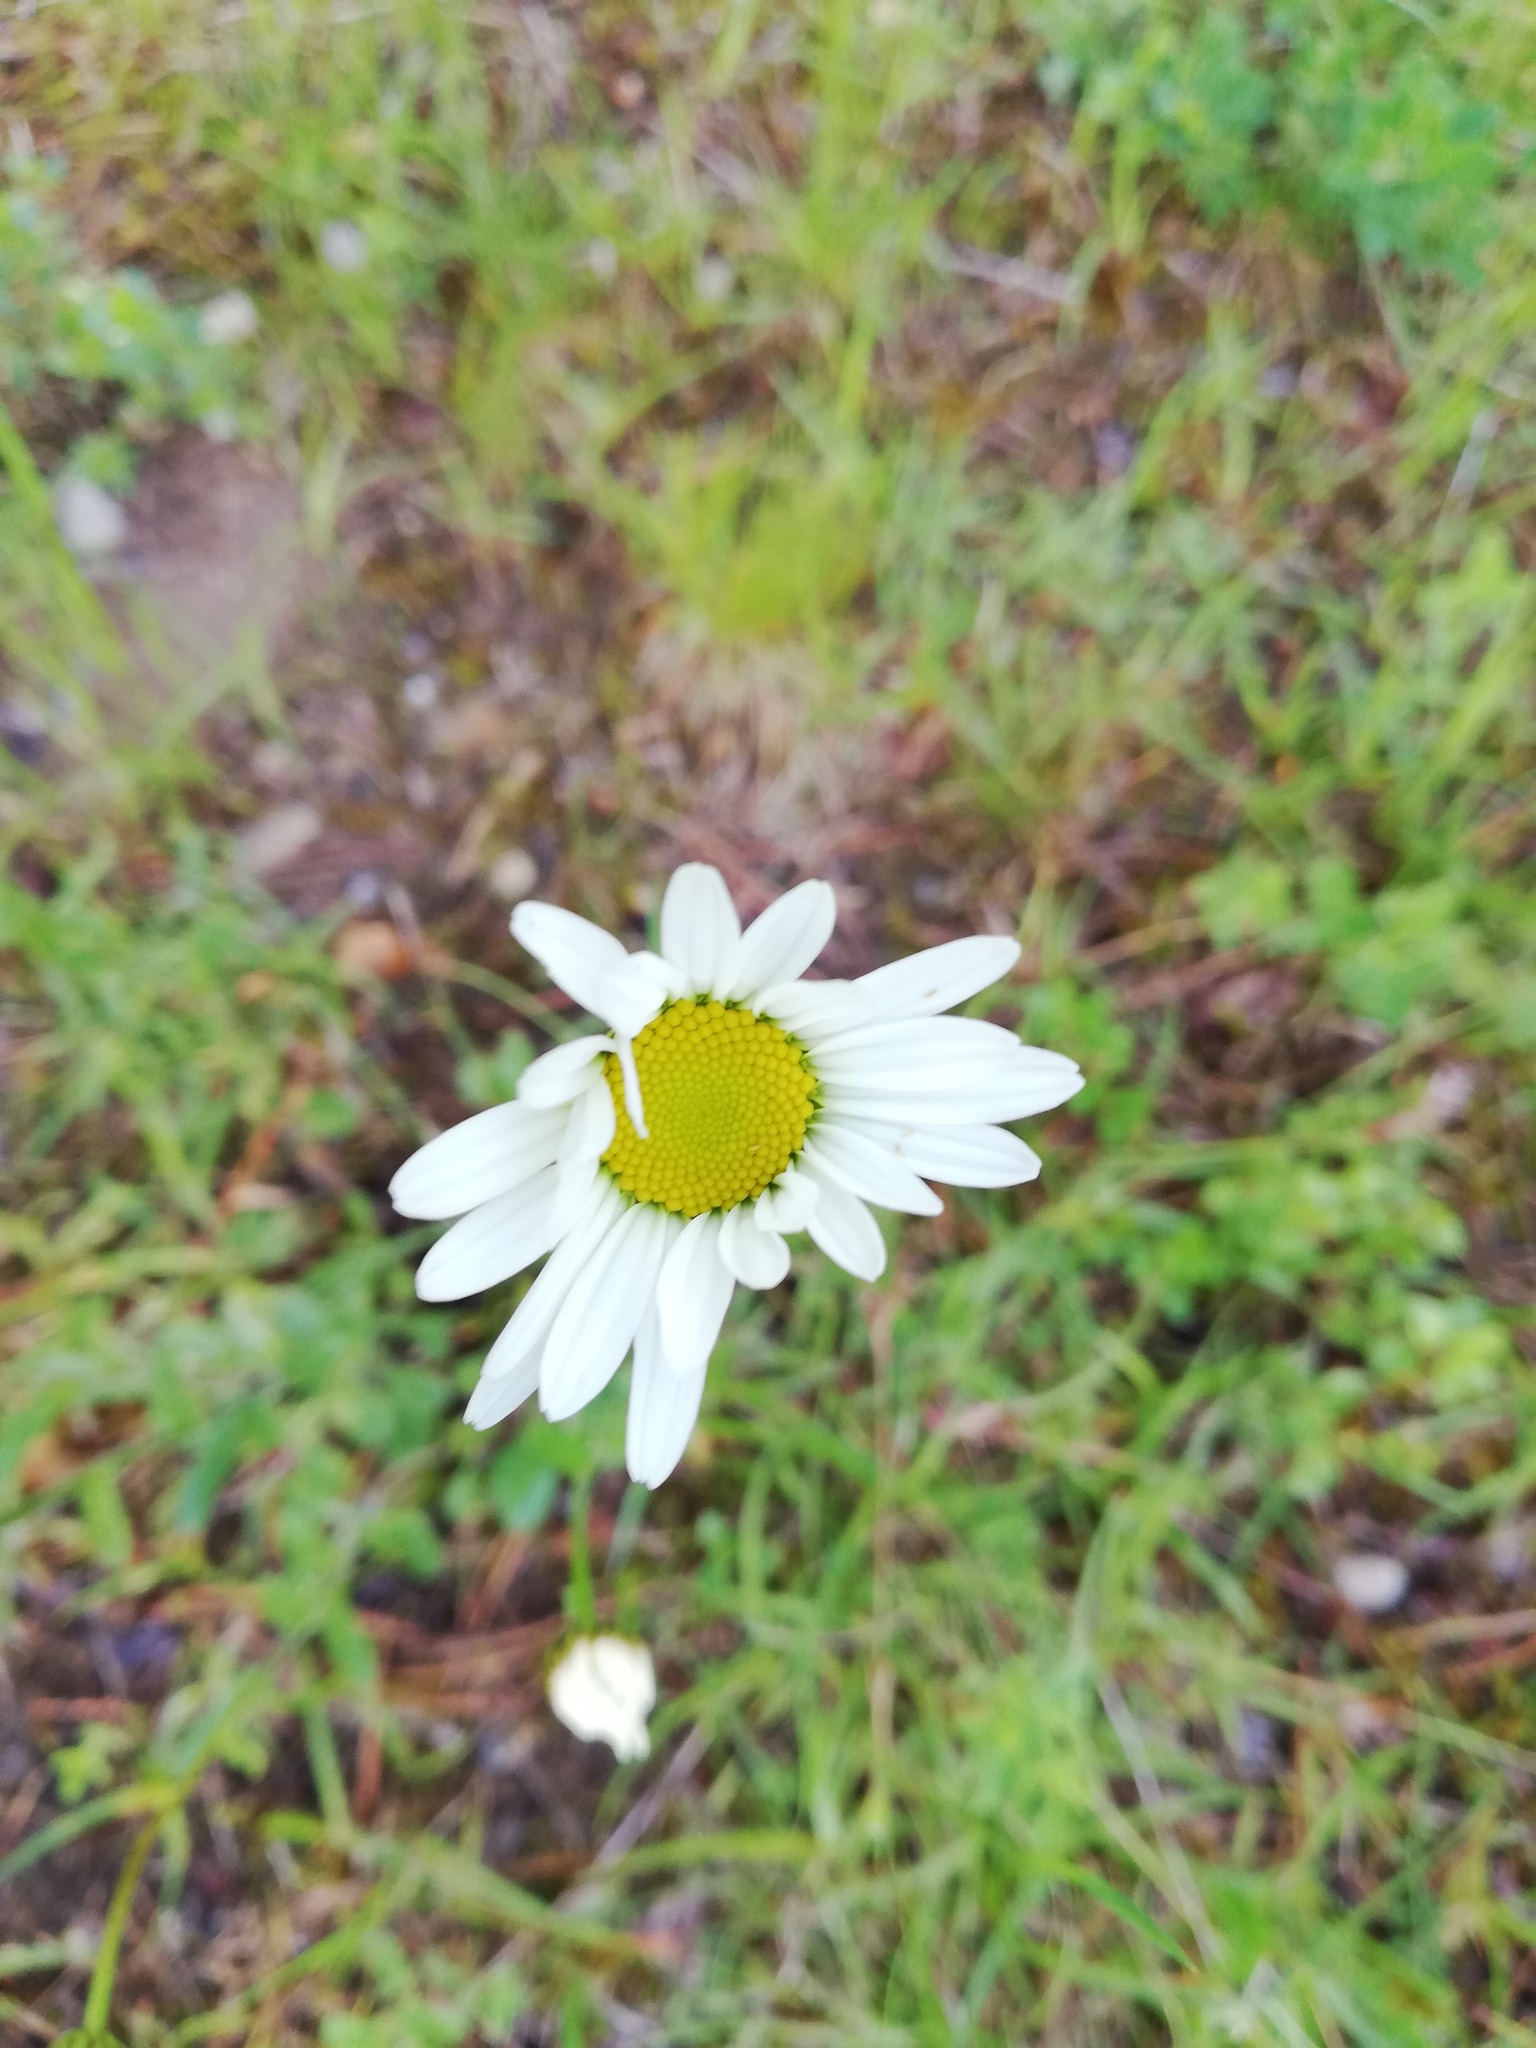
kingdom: Plantae
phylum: Tracheophyta
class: Magnoliopsida
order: Asterales
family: Asteraceae
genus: Leucanthemum
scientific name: Leucanthemum vulgare
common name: Oxeye daisy
